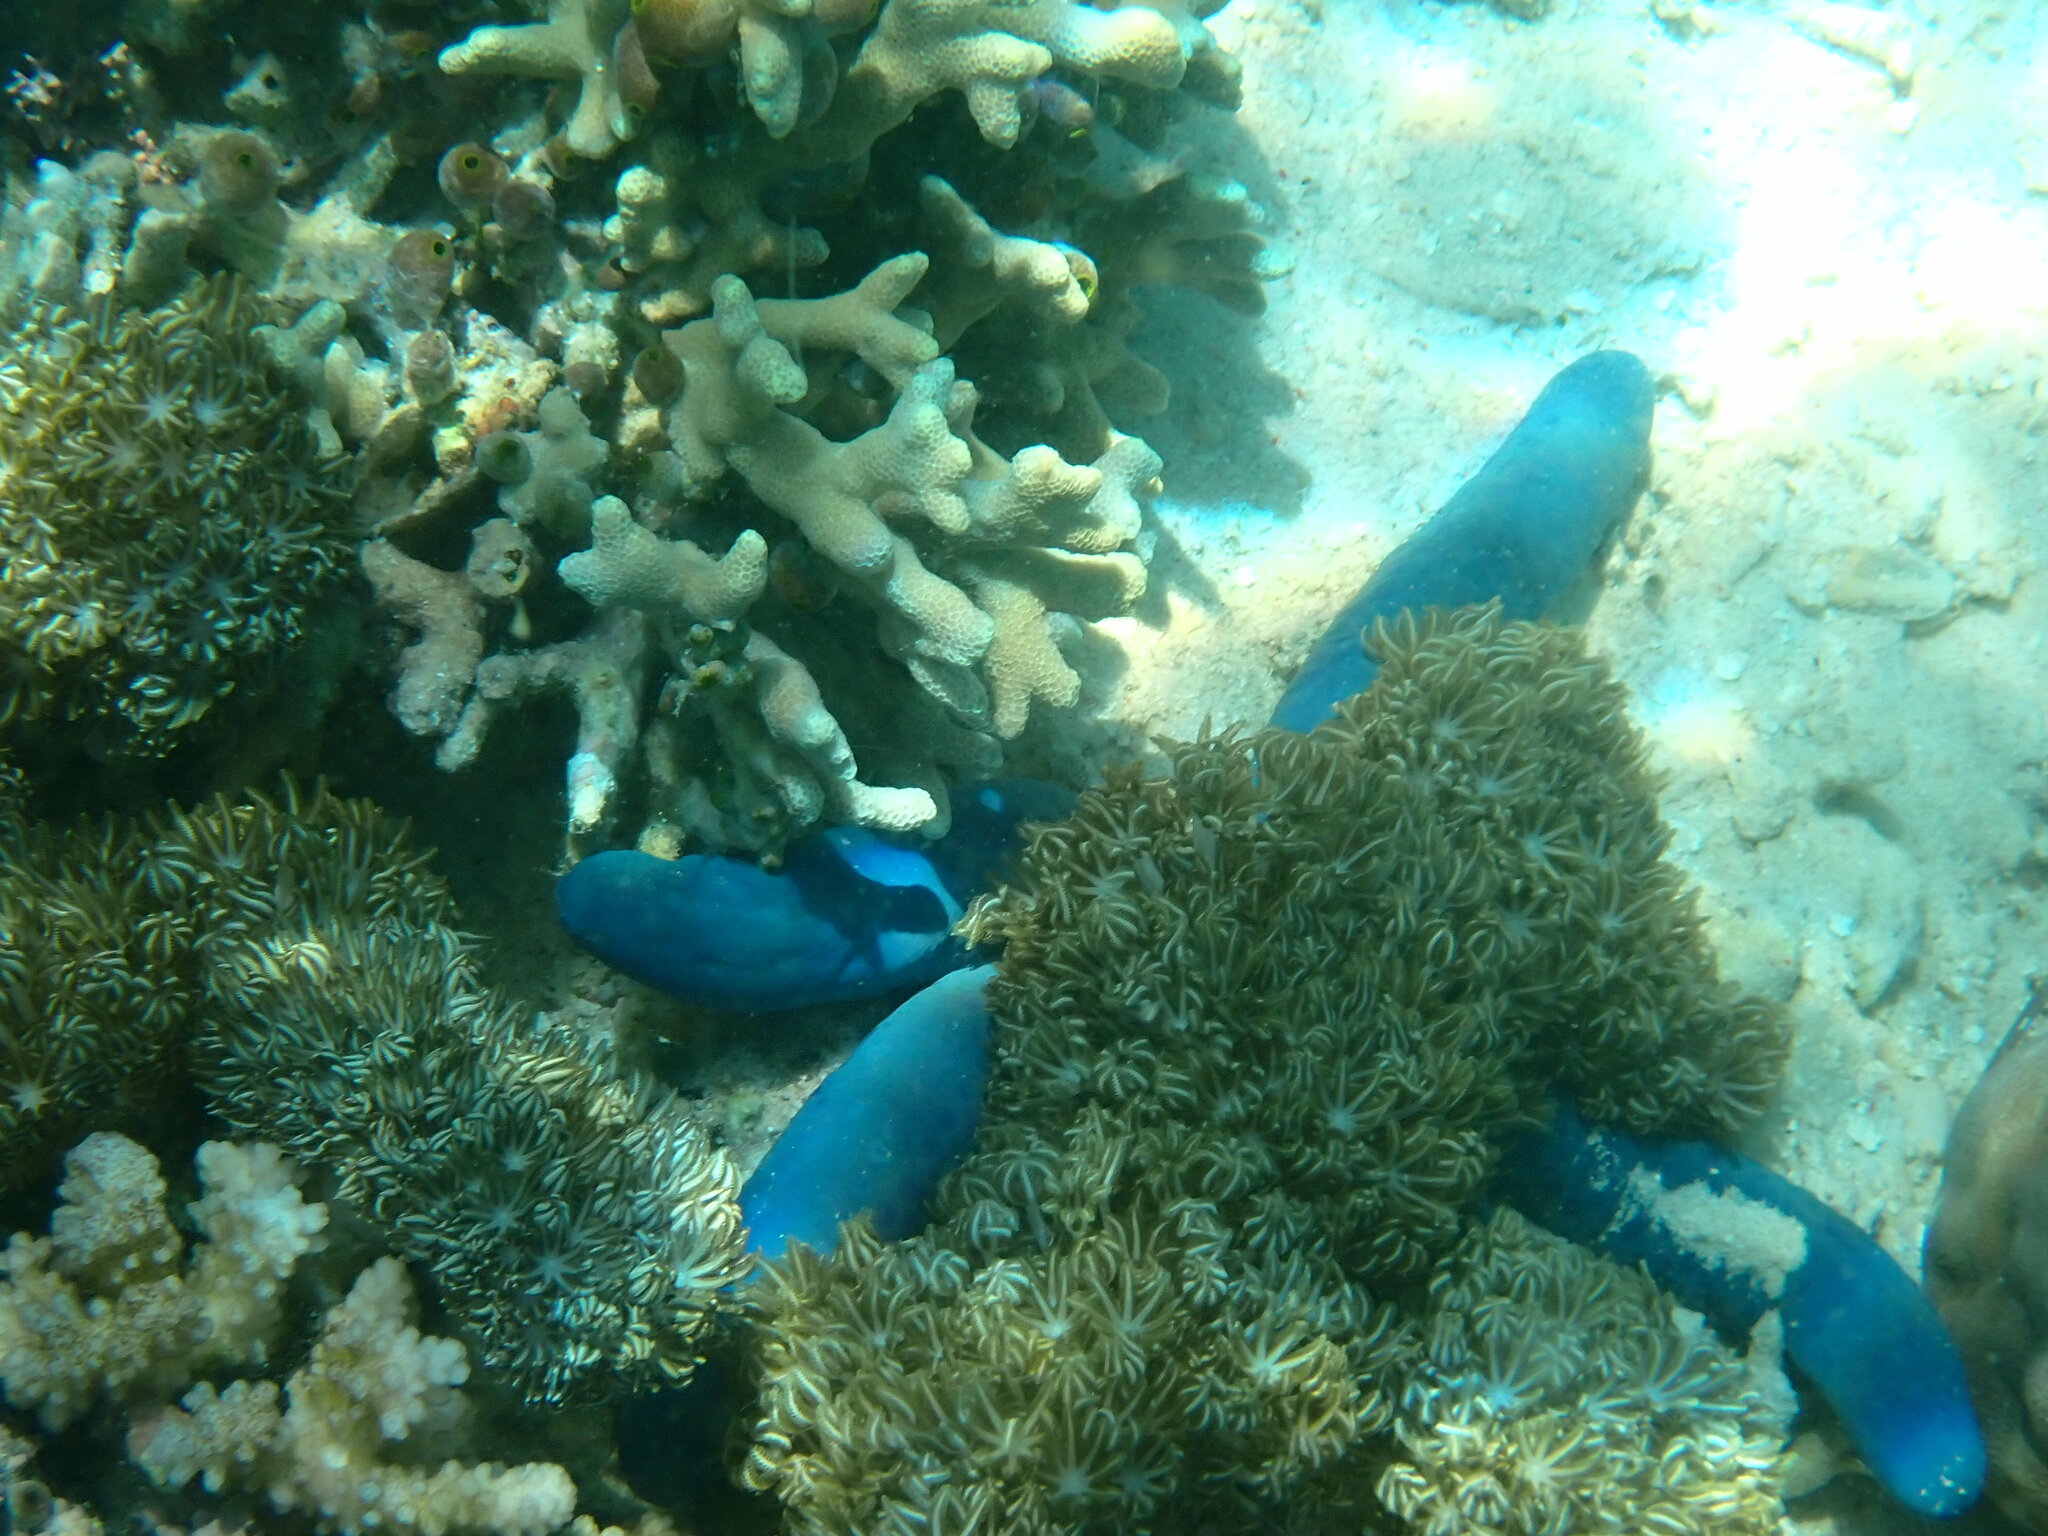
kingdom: Animalia
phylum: Echinodermata
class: Asteroidea
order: Valvatida
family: Ophidiasteridae
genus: Linckia
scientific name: Linckia laevigata
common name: Azure sea star
